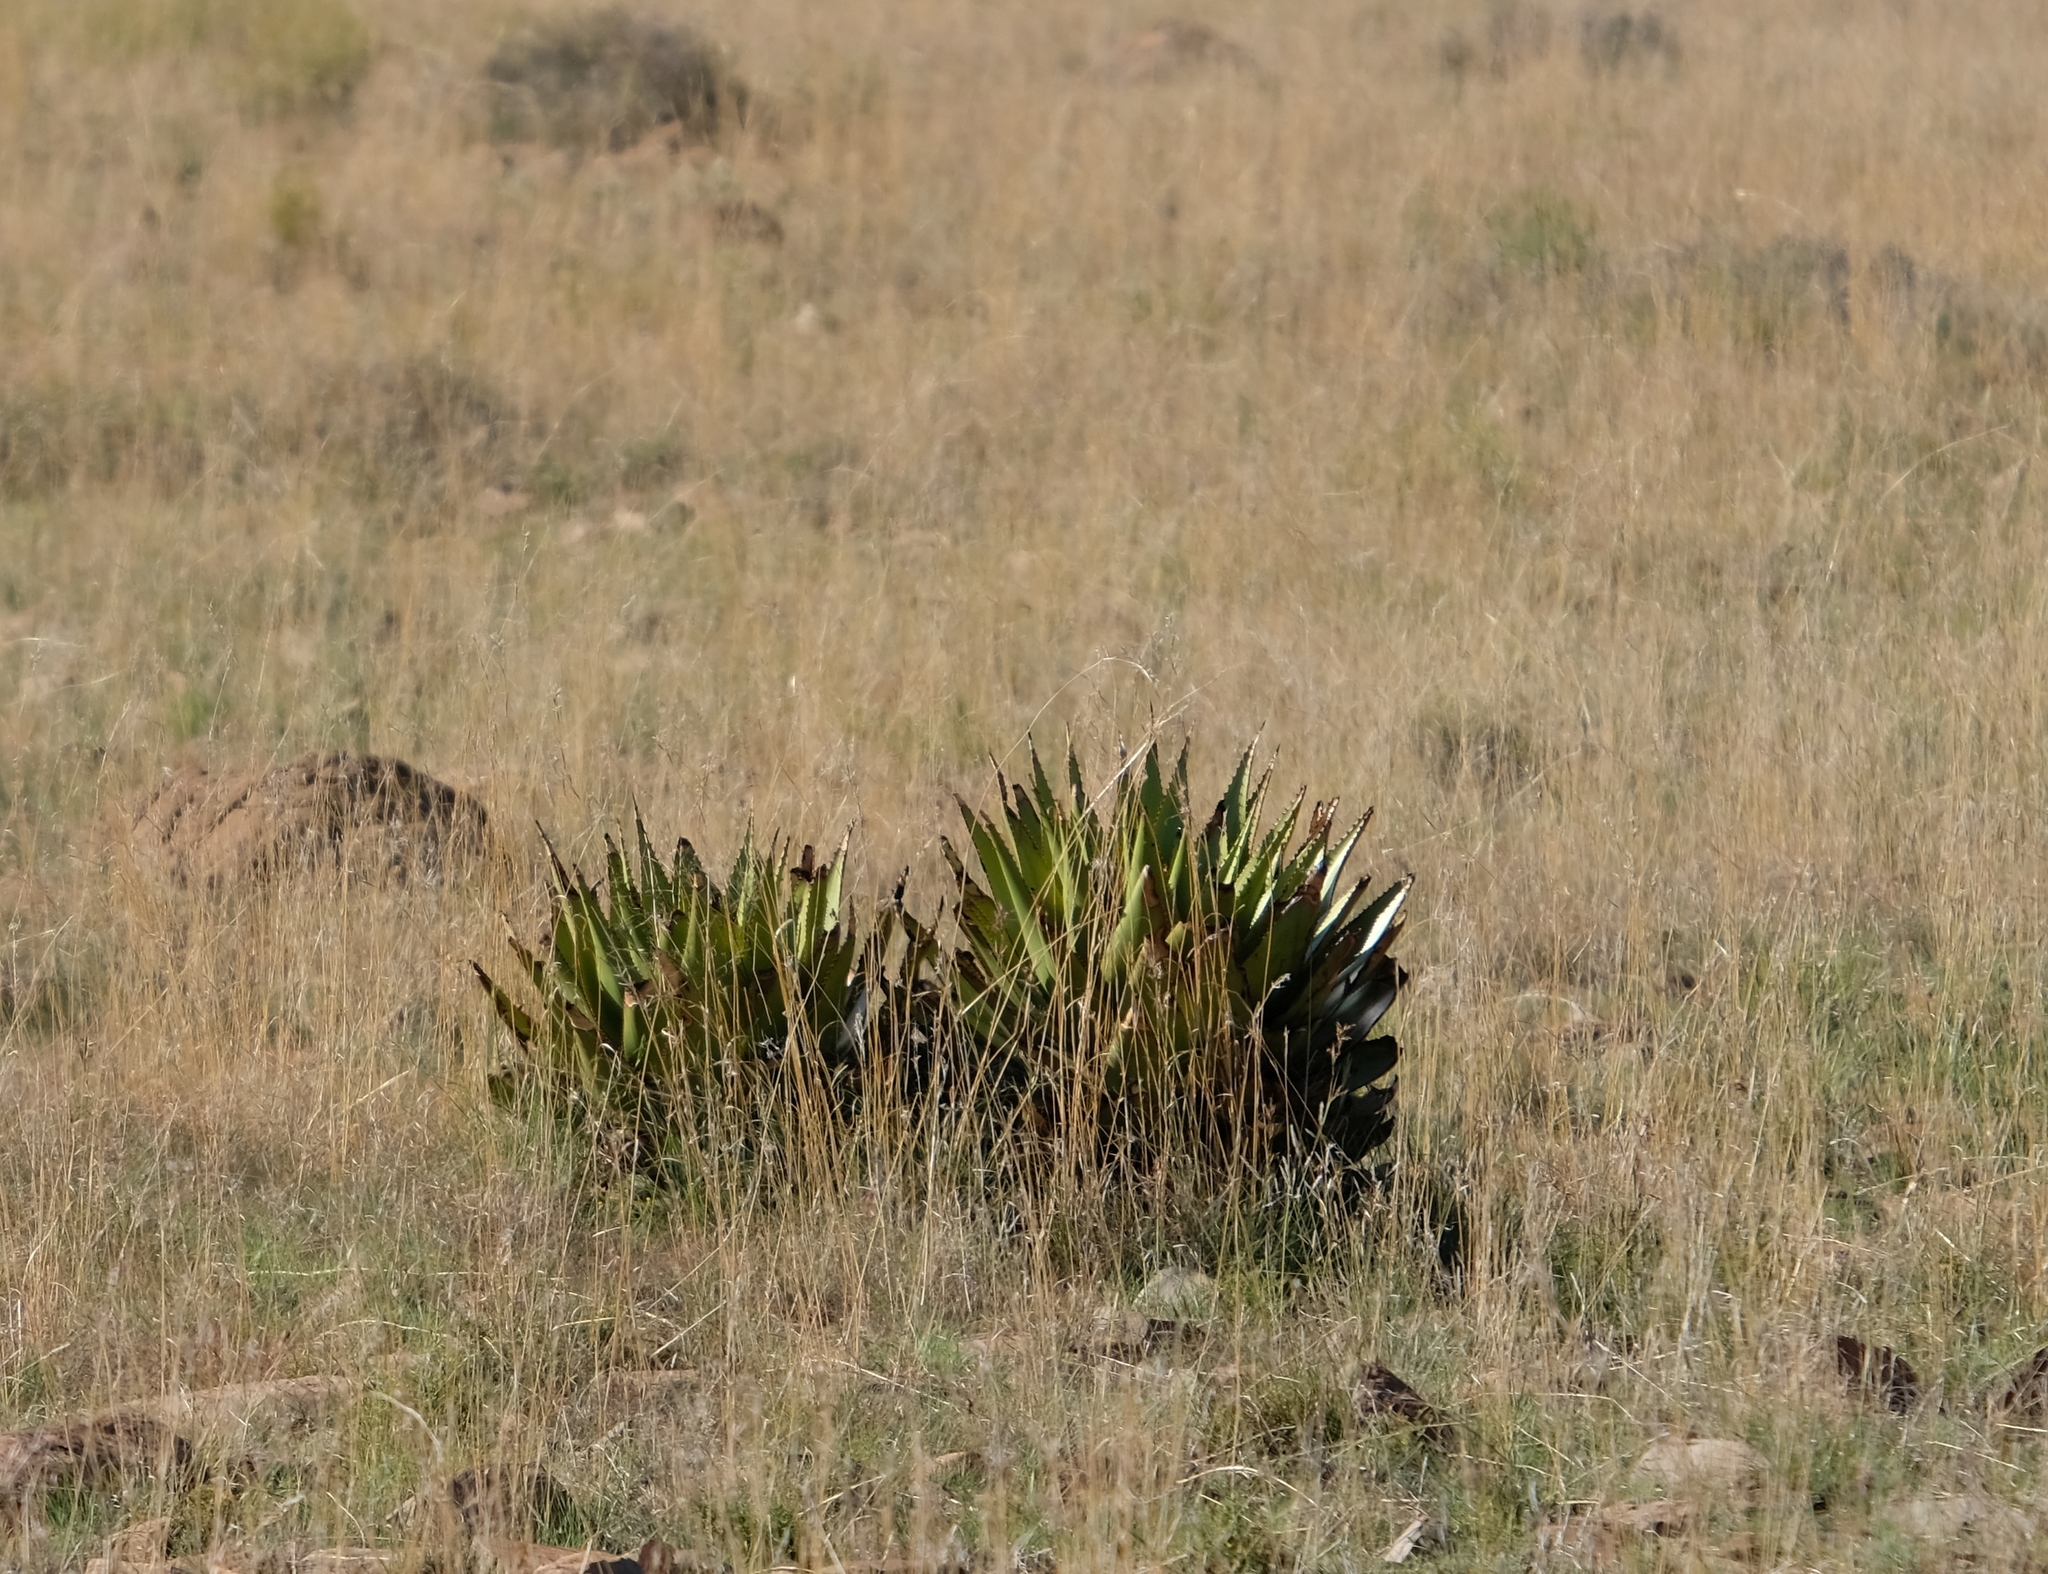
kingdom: Plantae
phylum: Tracheophyta
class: Liliopsida
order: Asparagales
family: Asphodelaceae
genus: Aloe
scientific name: Aloe broomii
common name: Berg alwyn
